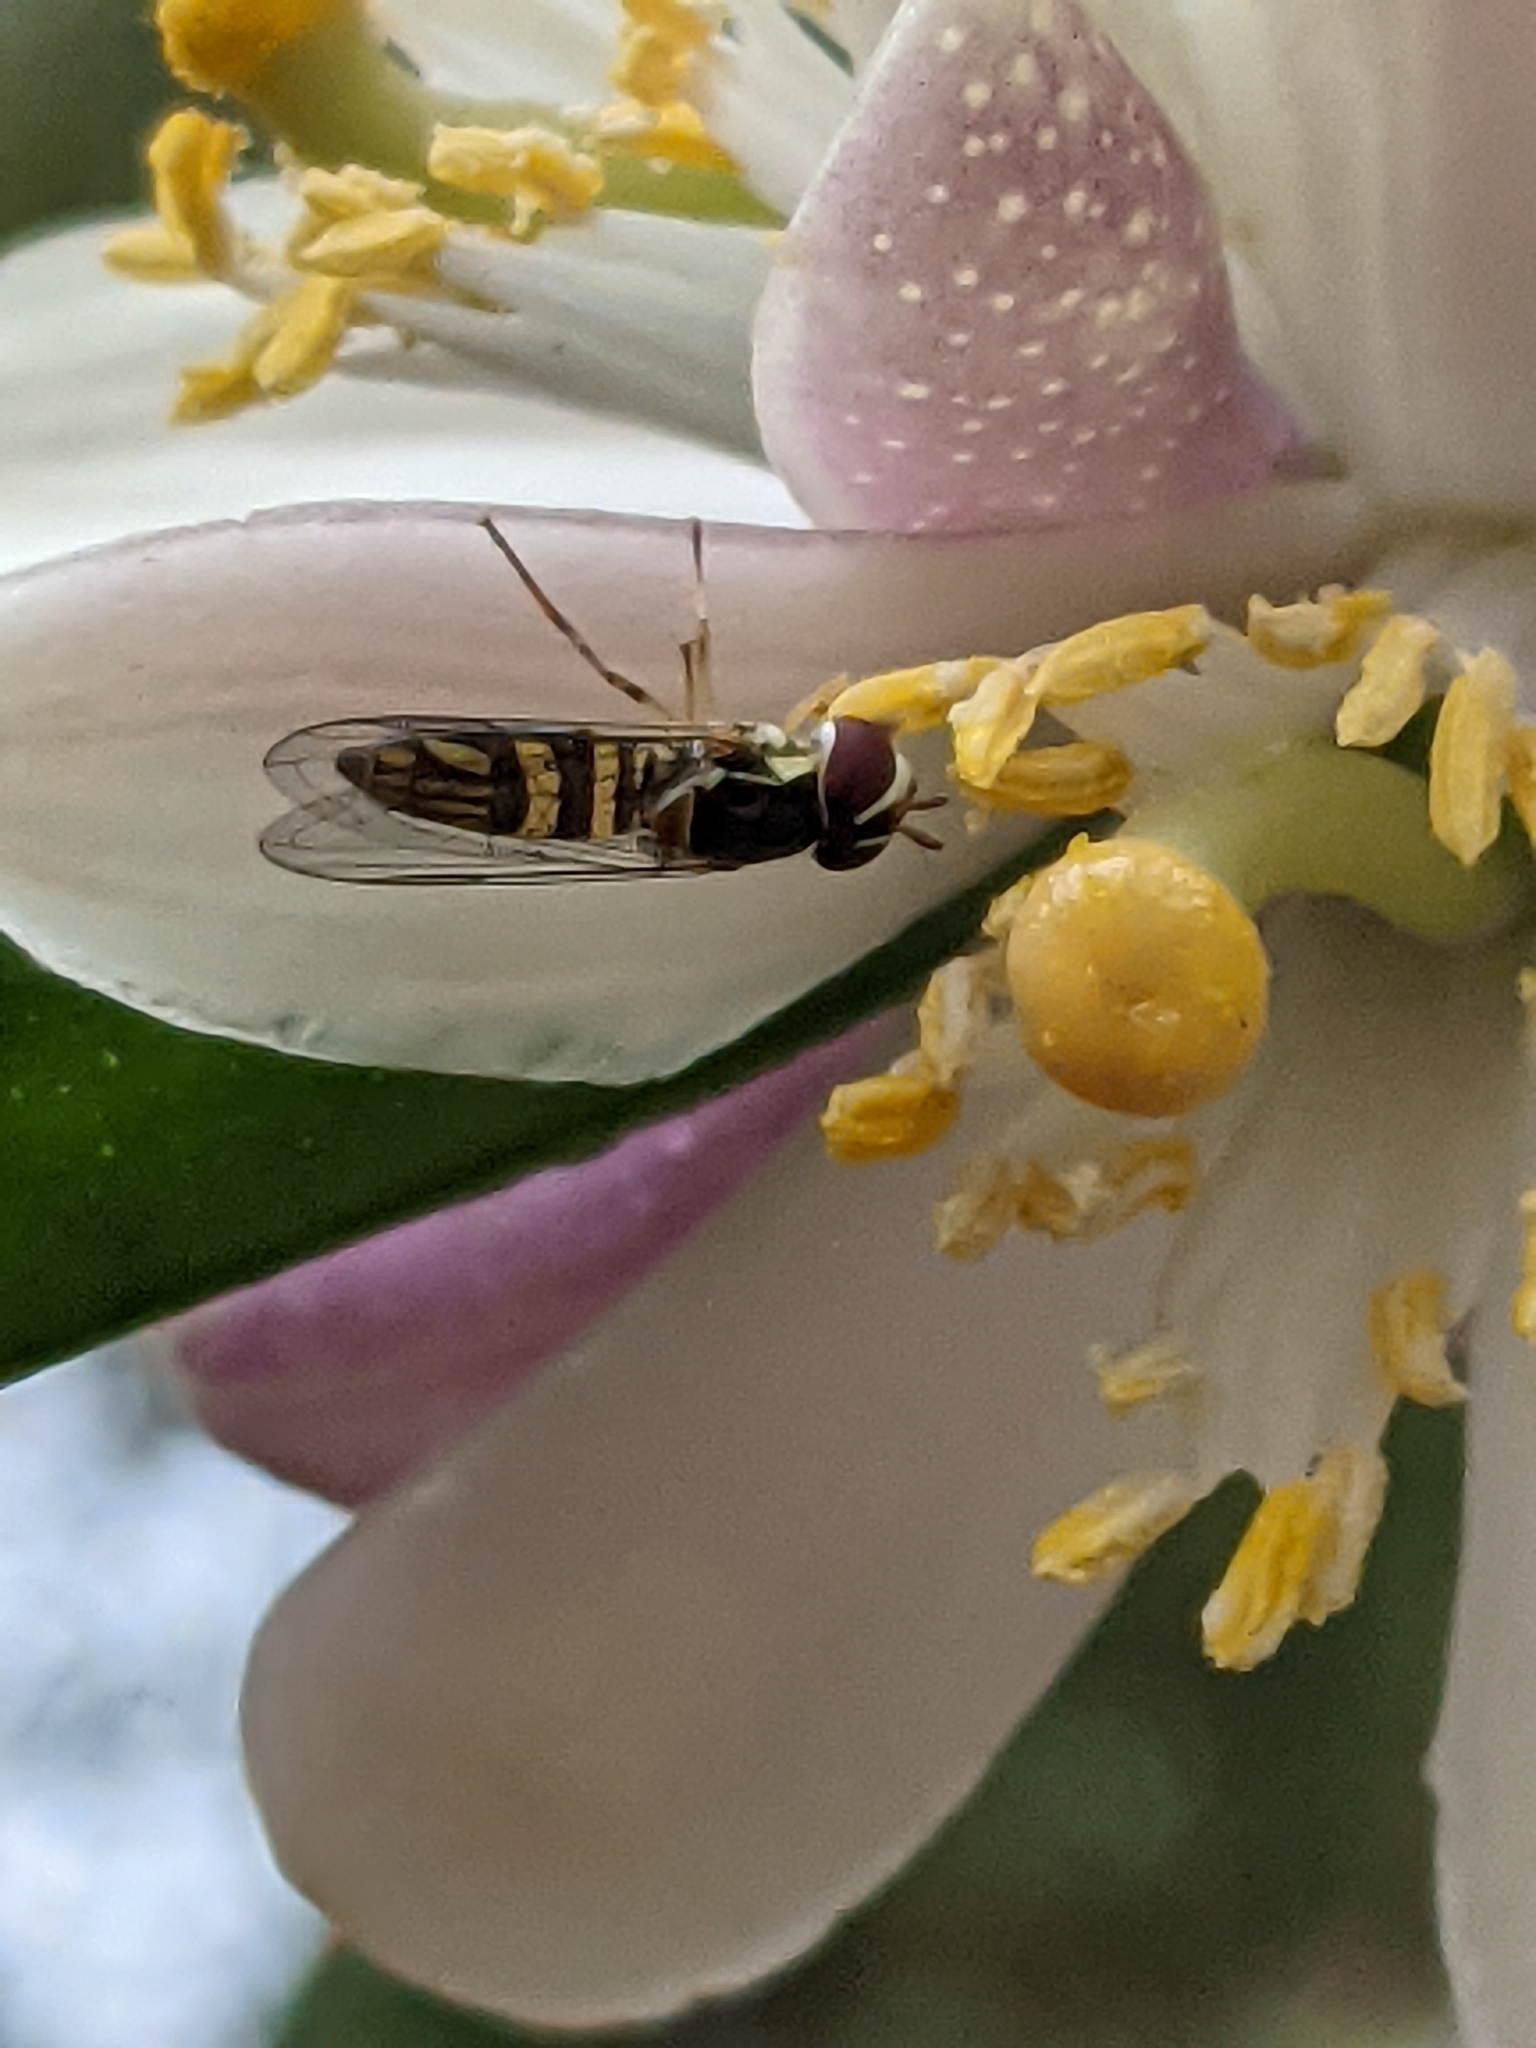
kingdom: Animalia
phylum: Arthropoda
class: Insecta
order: Diptera
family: Syrphidae
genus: Allograpta
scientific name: Allograpta obliqua
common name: Common oblique syrphid
